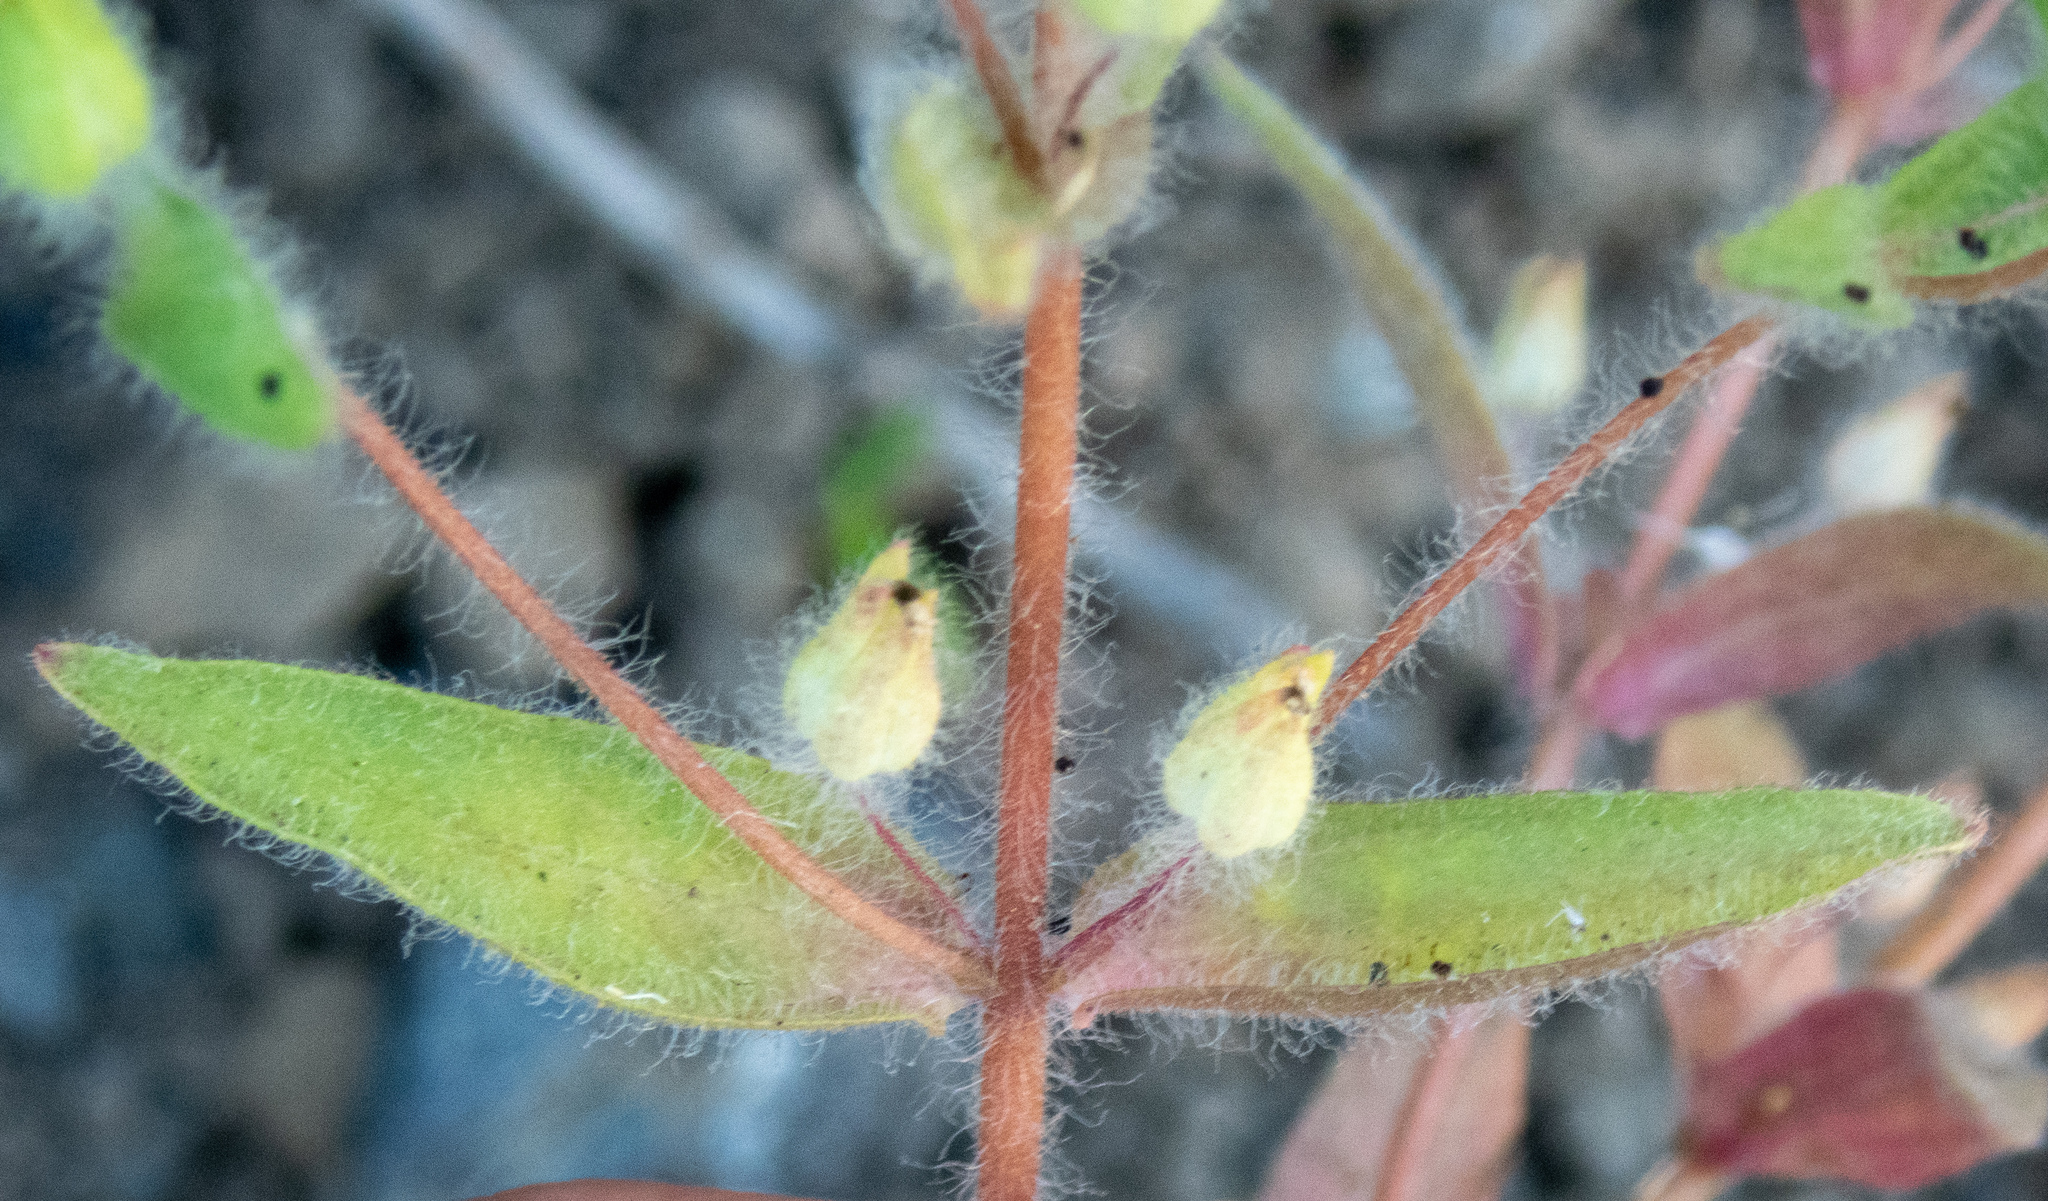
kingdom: Plantae
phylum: Tracheophyta
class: Magnoliopsida
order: Lamiales
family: Phrymaceae
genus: Mimetanthe
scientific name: Mimetanthe pilosa
